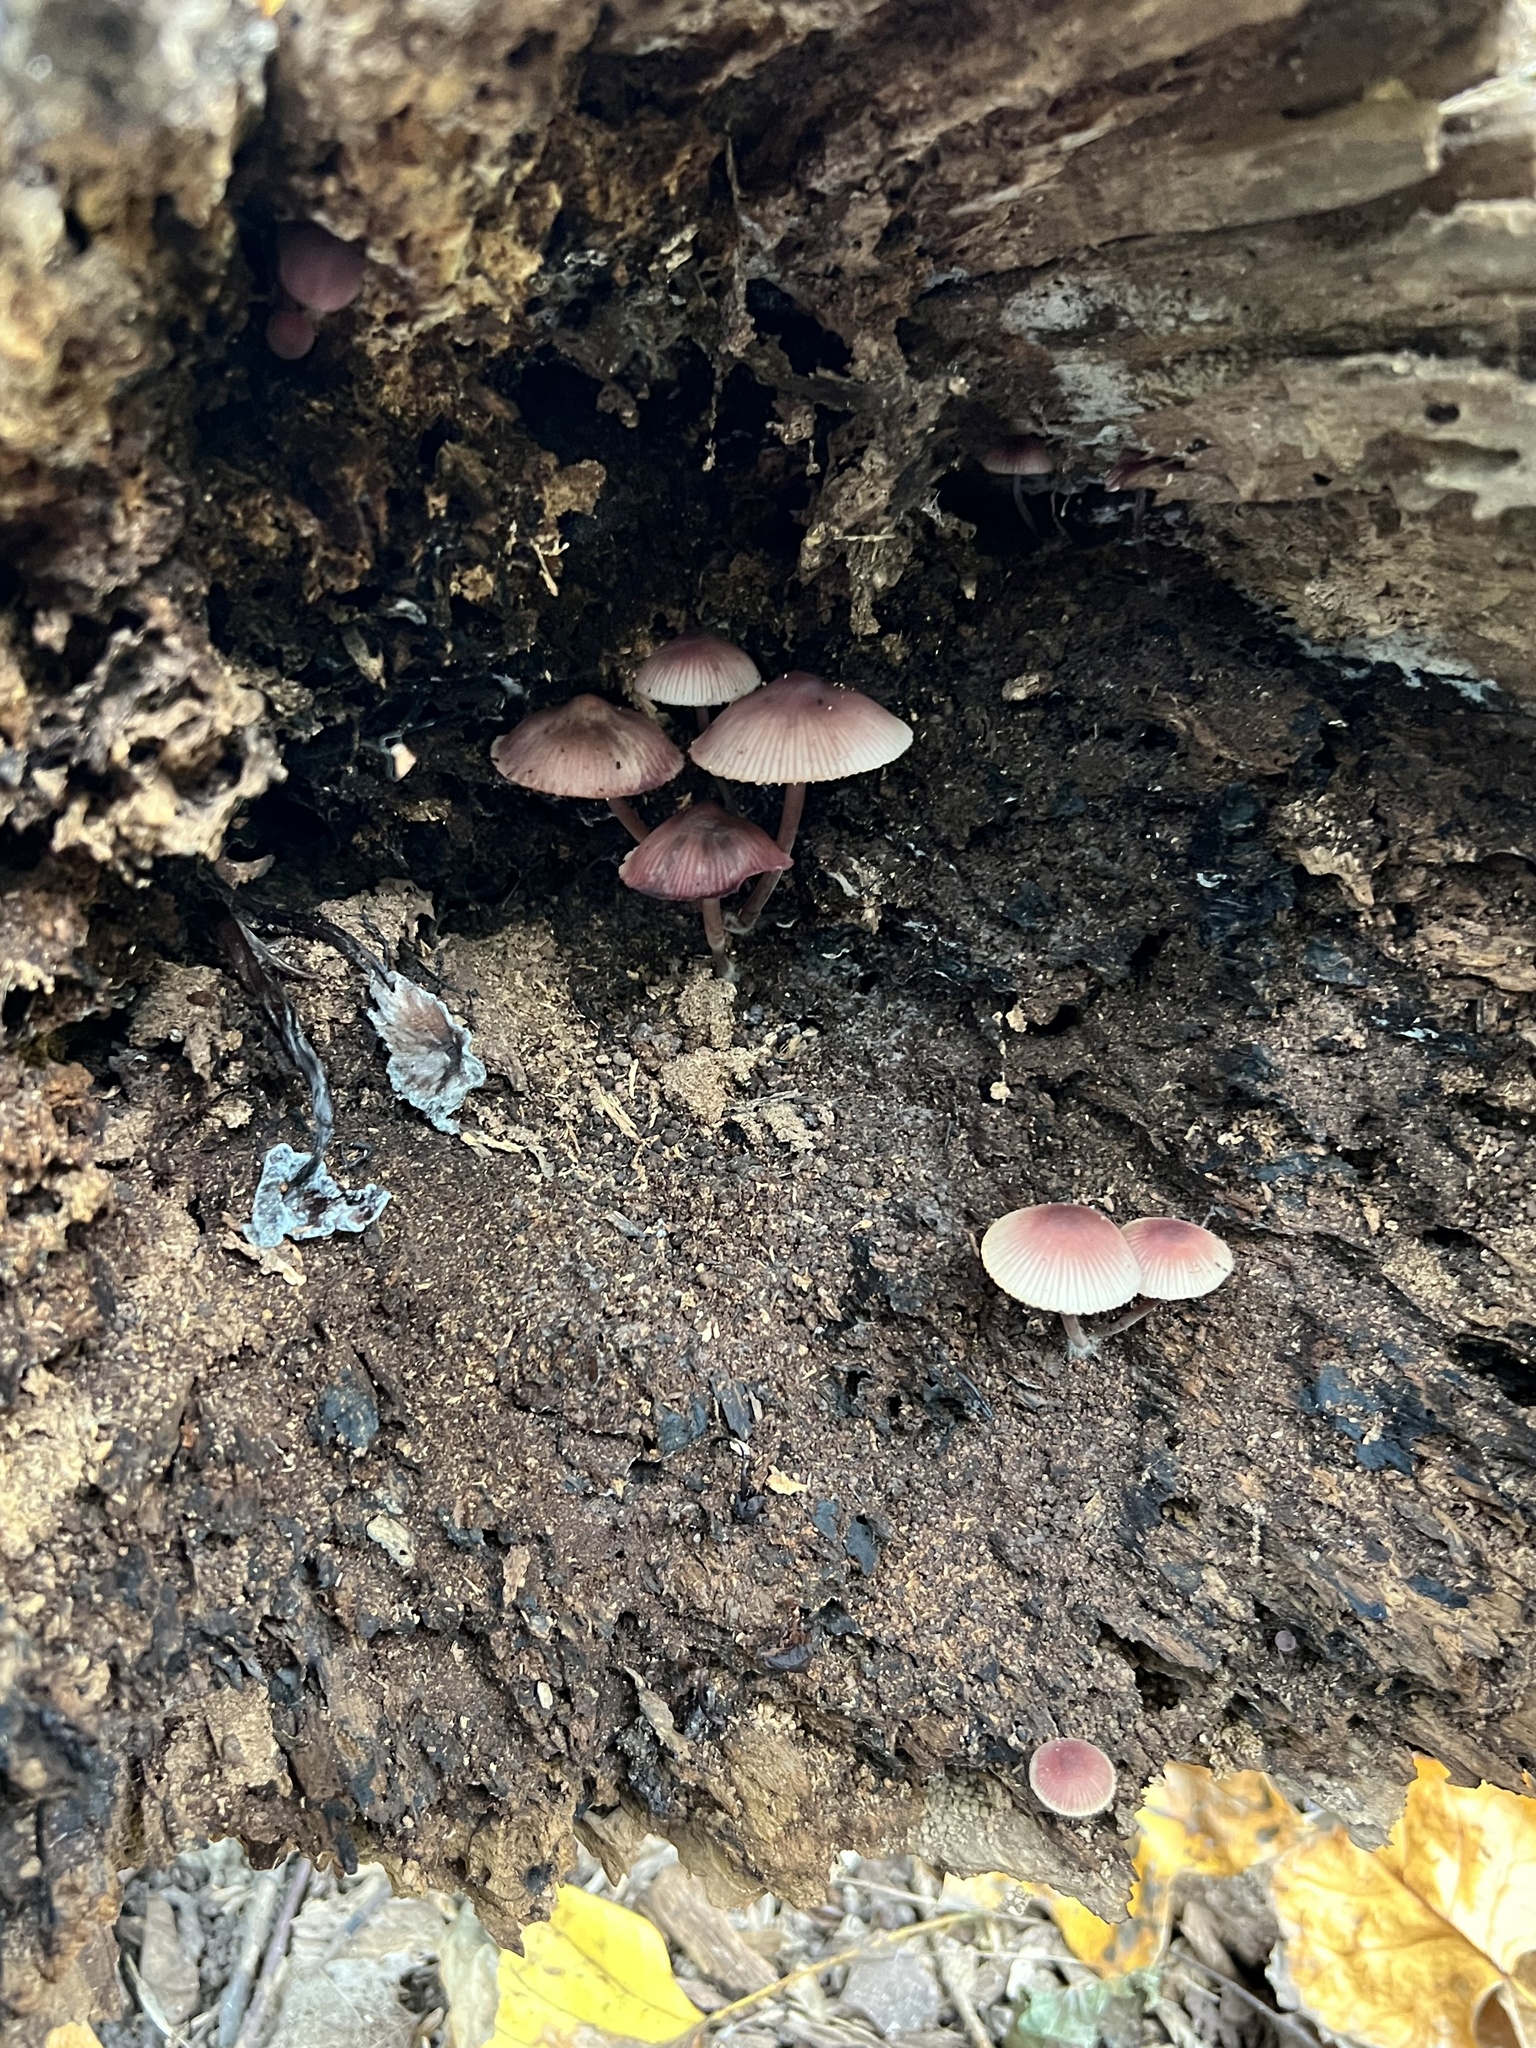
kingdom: Fungi
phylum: Basidiomycota
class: Agaricomycetes
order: Agaricales
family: Mycenaceae
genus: Mycena
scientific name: Mycena haematopus
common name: Burgundydrop bonnet
